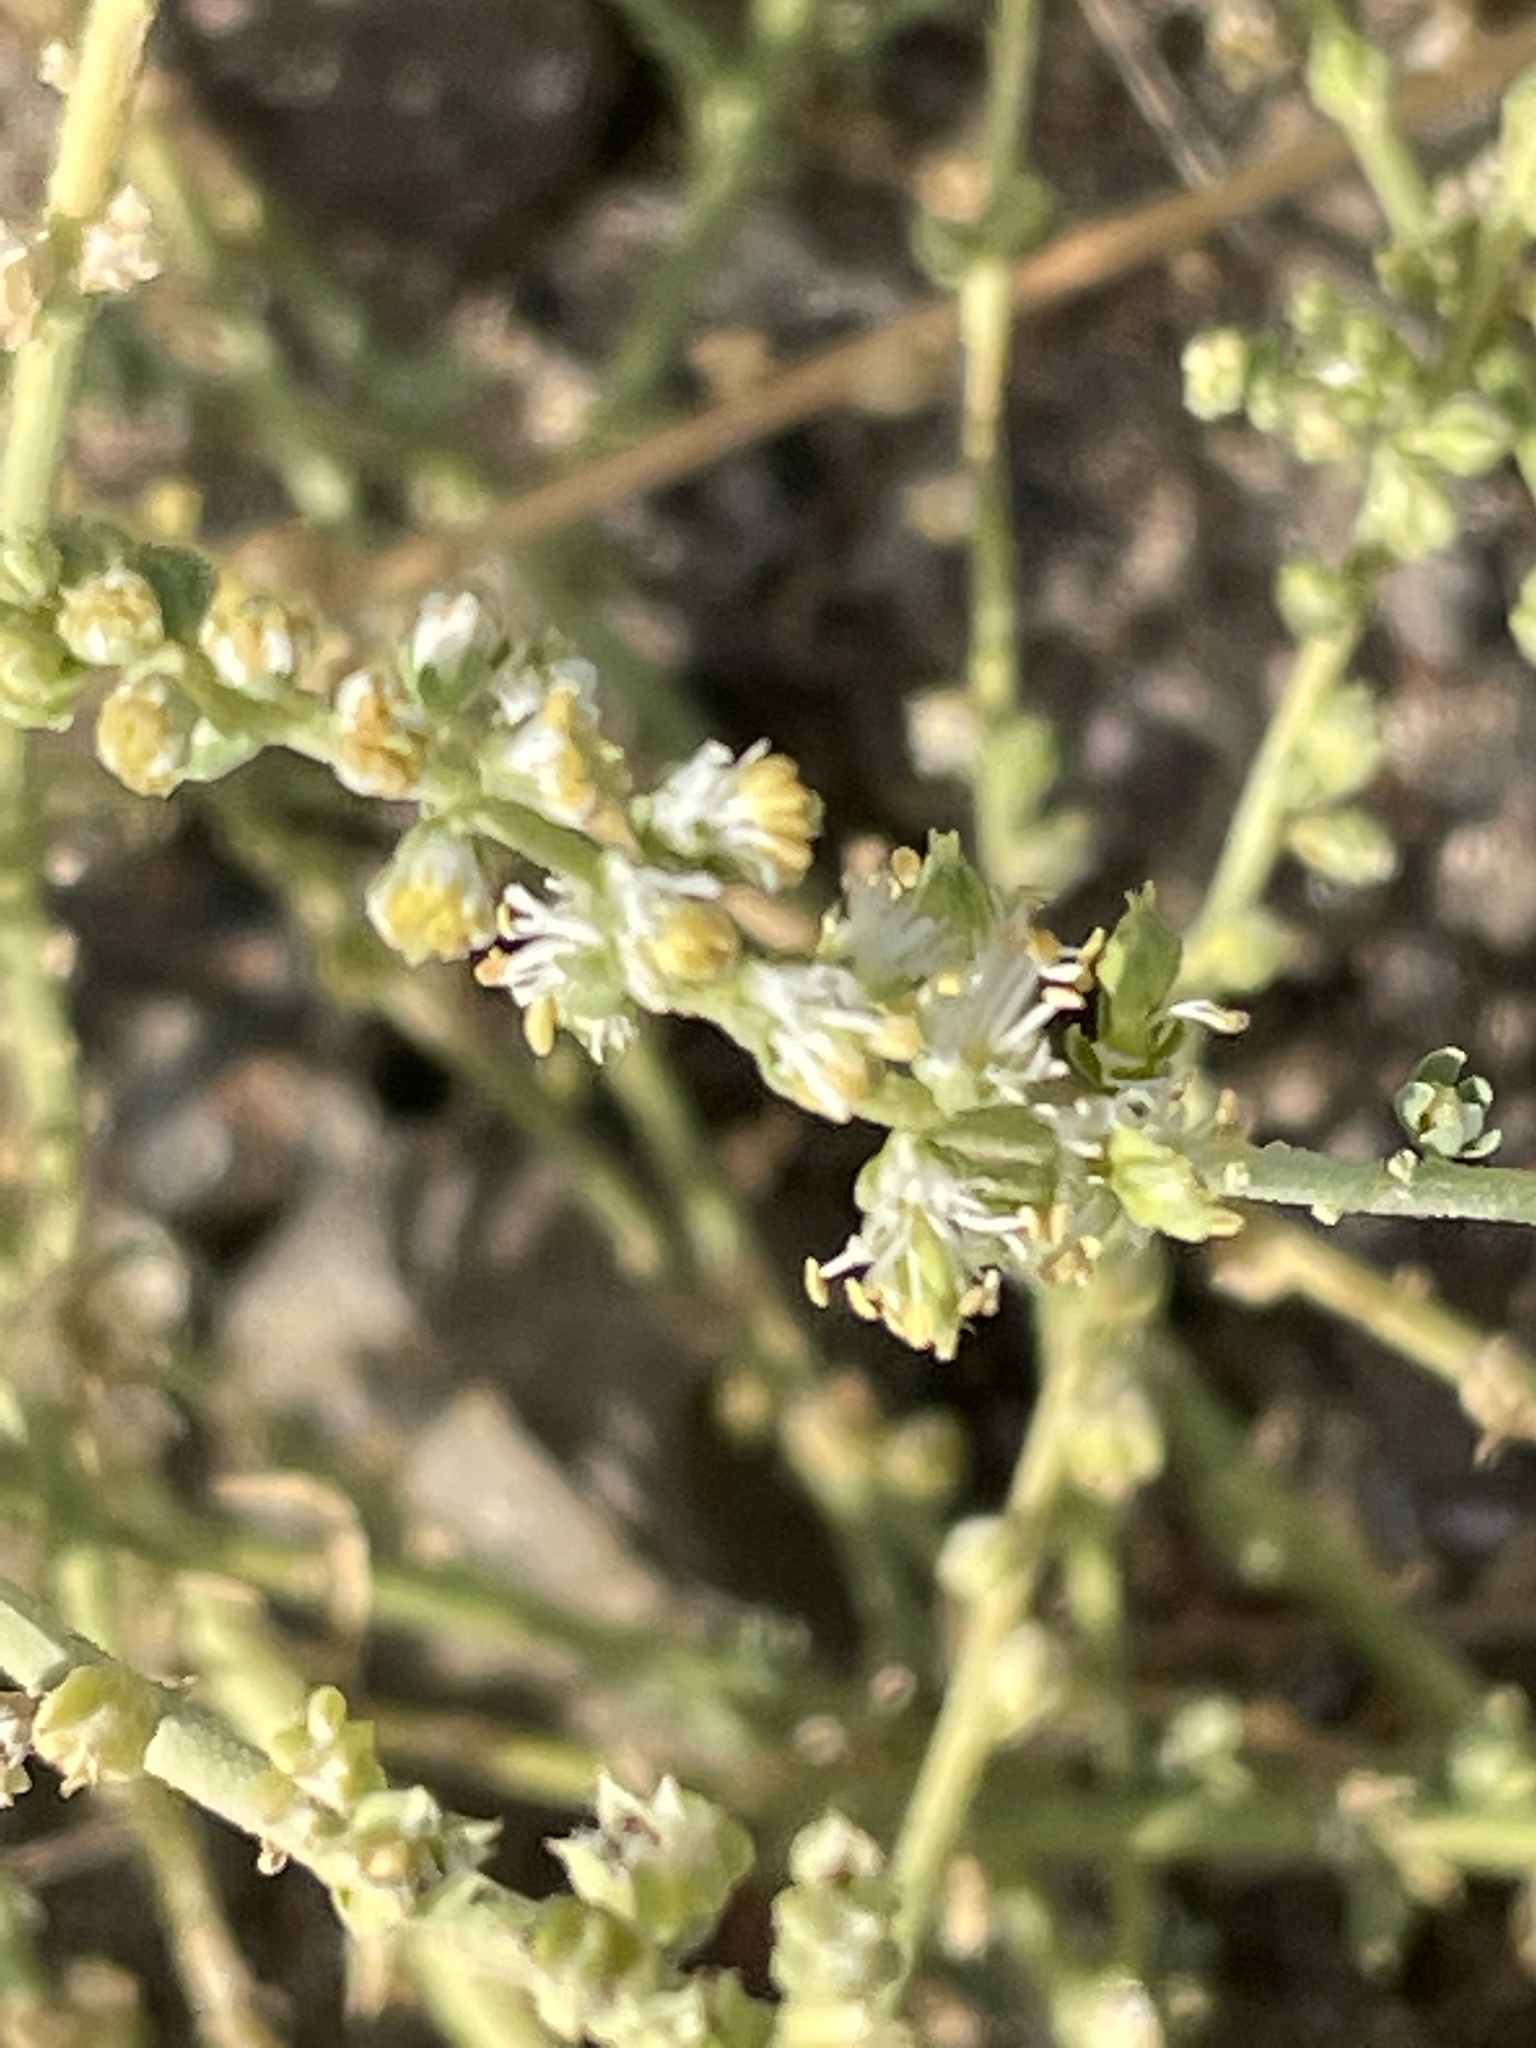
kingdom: Plantae
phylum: Tracheophyta
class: Magnoliopsida
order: Brassicales
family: Resedaceae
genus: Caylusea
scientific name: Caylusea hexagyna
